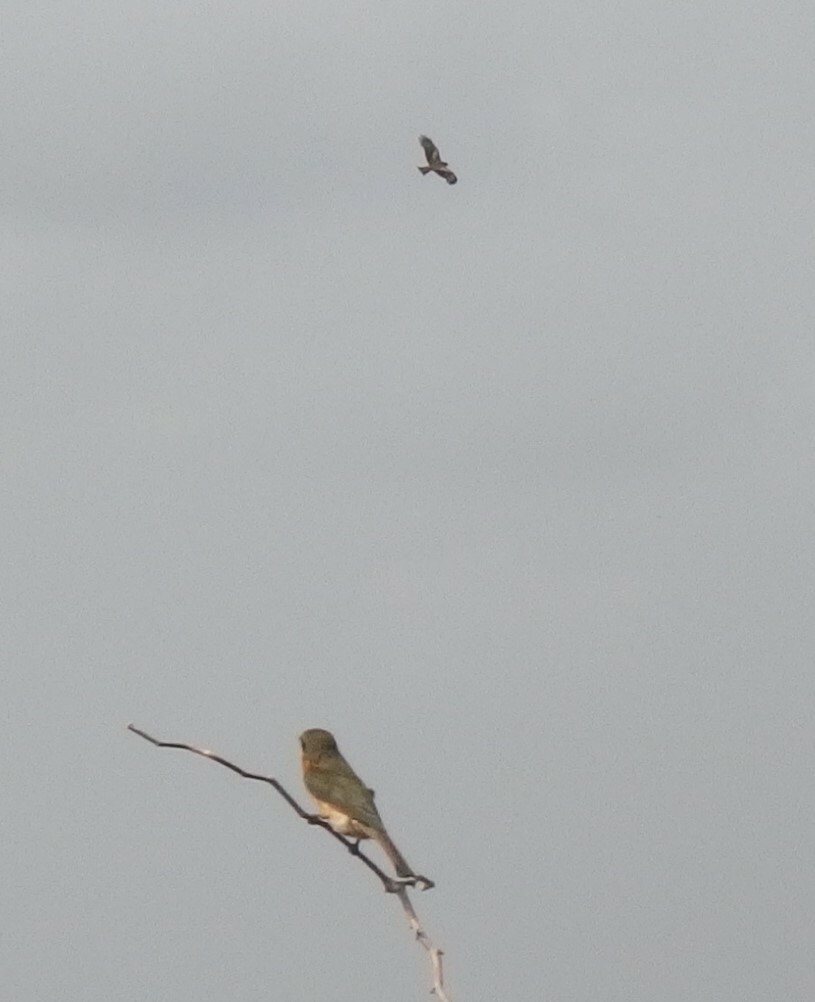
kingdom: Animalia
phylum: Chordata
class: Aves
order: Accipitriformes
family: Accipitridae
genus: Milvus
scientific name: Milvus migrans
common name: Black kite
